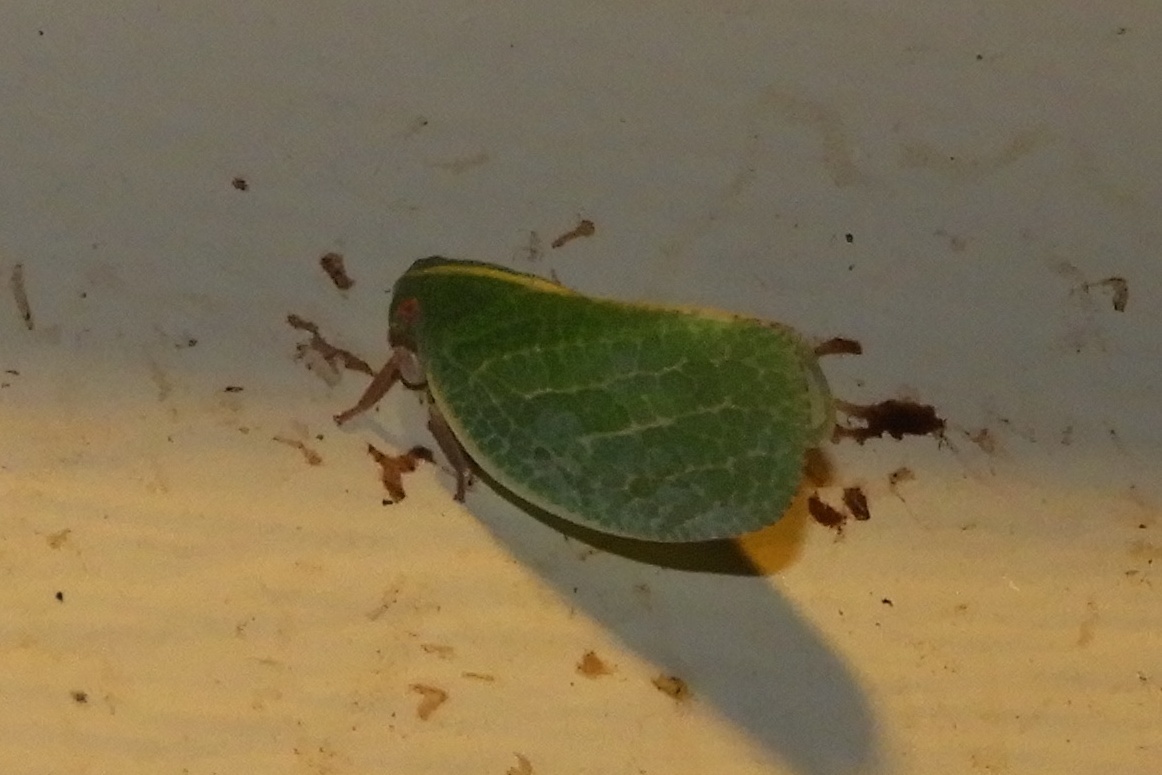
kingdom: Animalia
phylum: Arthropoda
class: Insecta
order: Hemiptera
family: Acanaloniidae
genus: Acanalonia
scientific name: Acanalonia servillei
